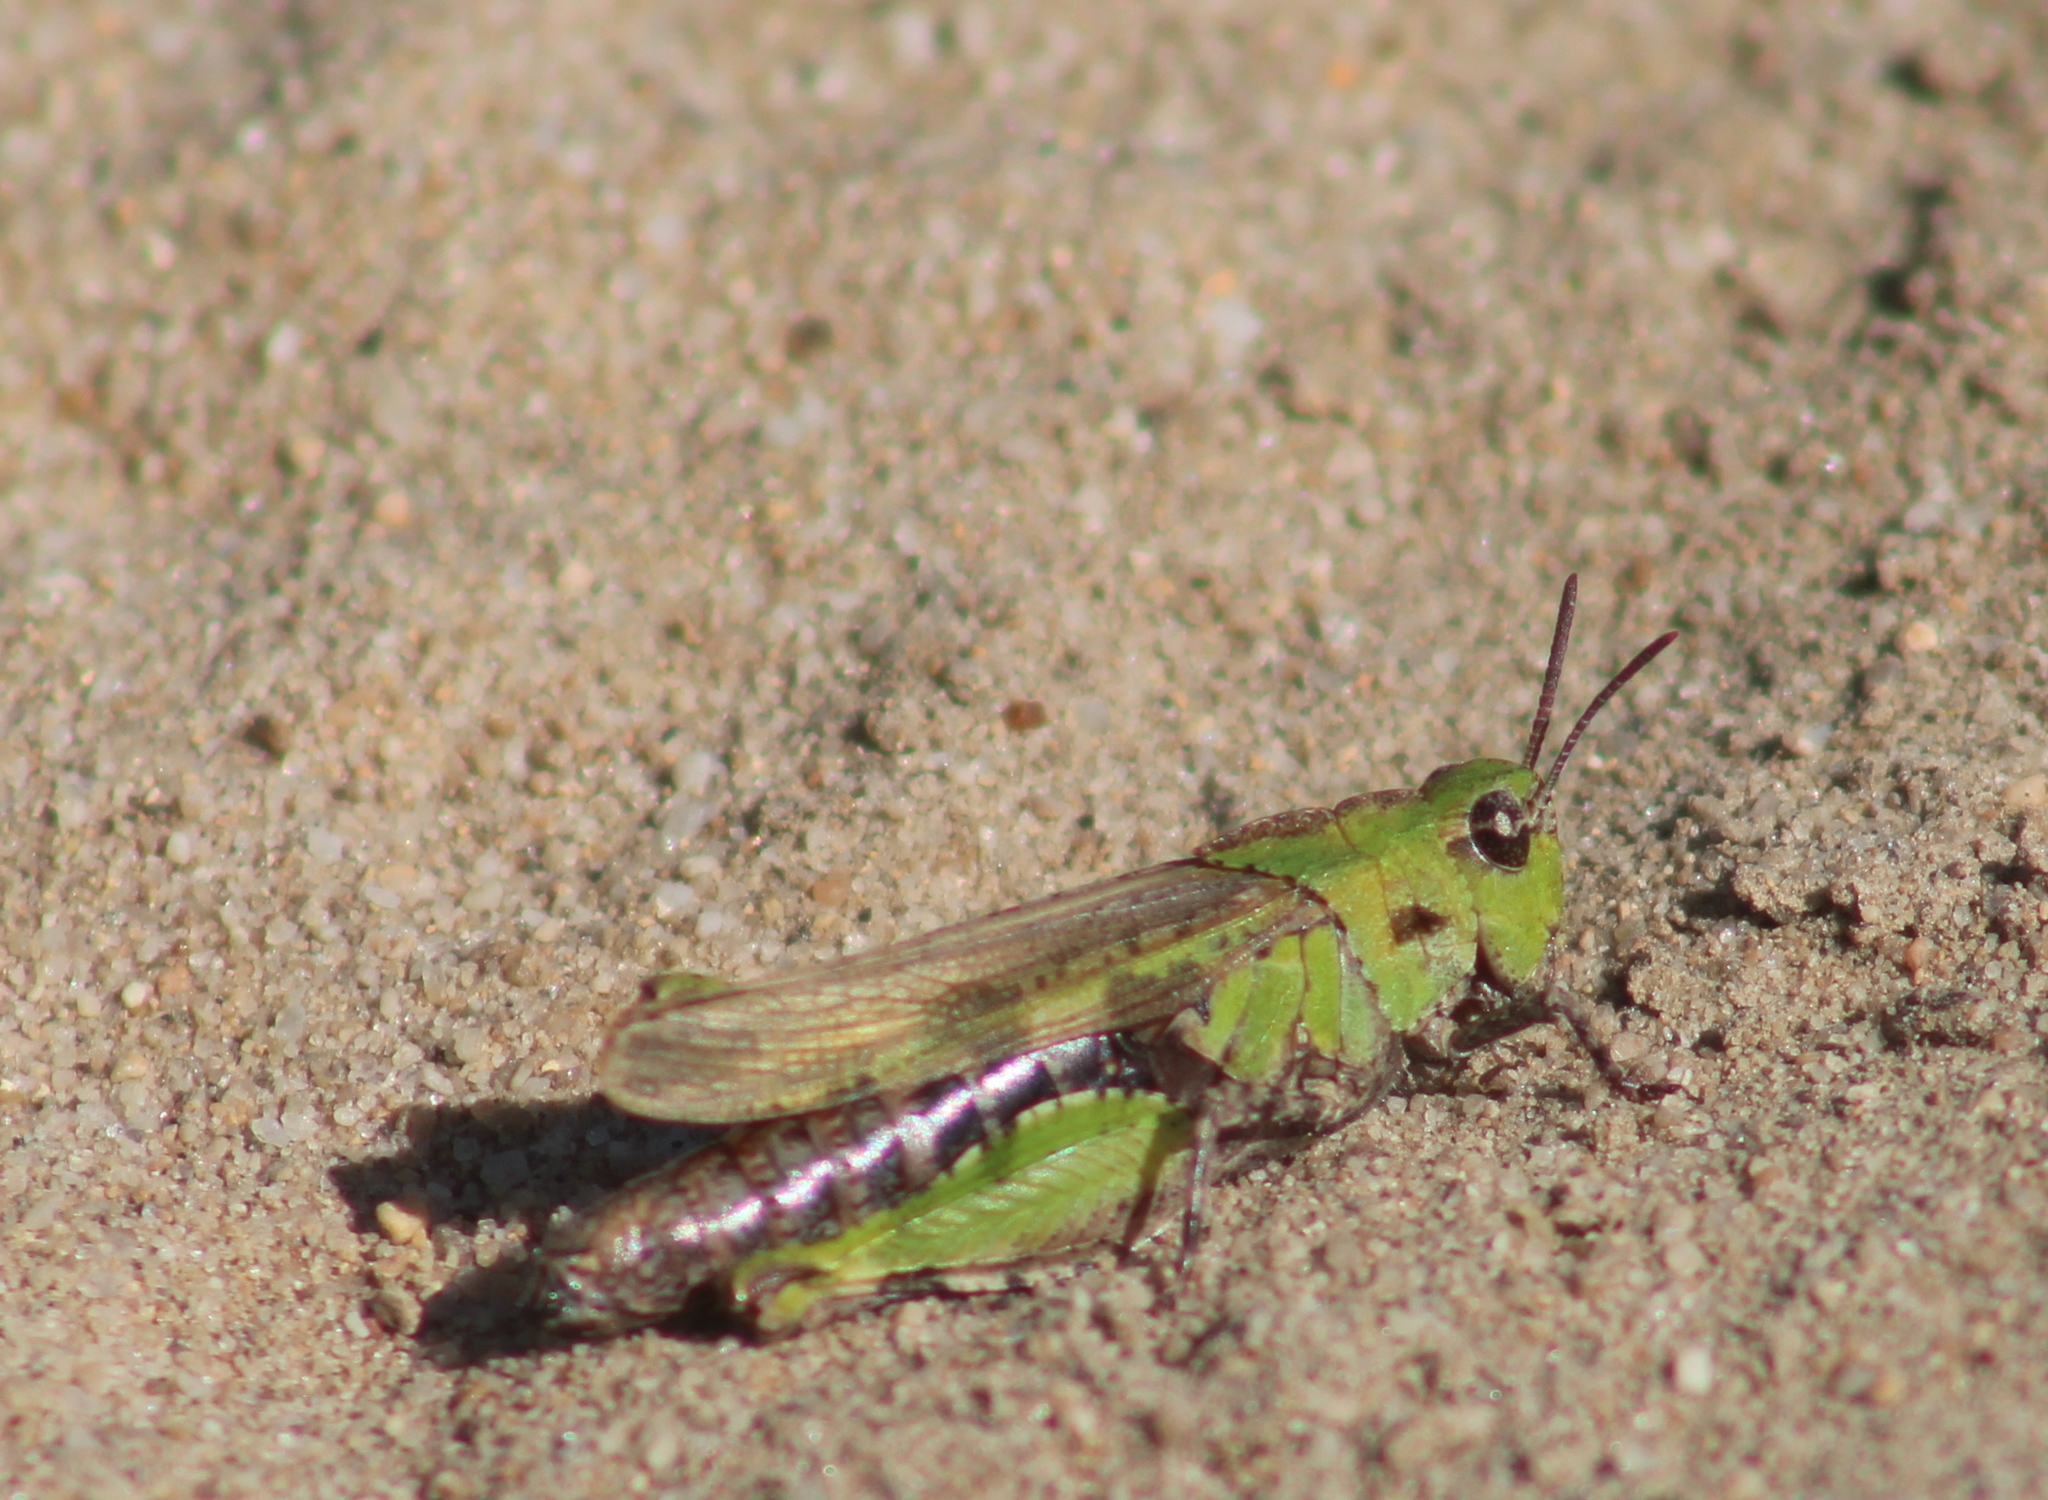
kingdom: Animalia
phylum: Arthropoda
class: Insecta
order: Orthoptera
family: Acrididae
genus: Chimarocephala
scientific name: Chimarocephala pacifica
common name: Painted meadow grasshopper
